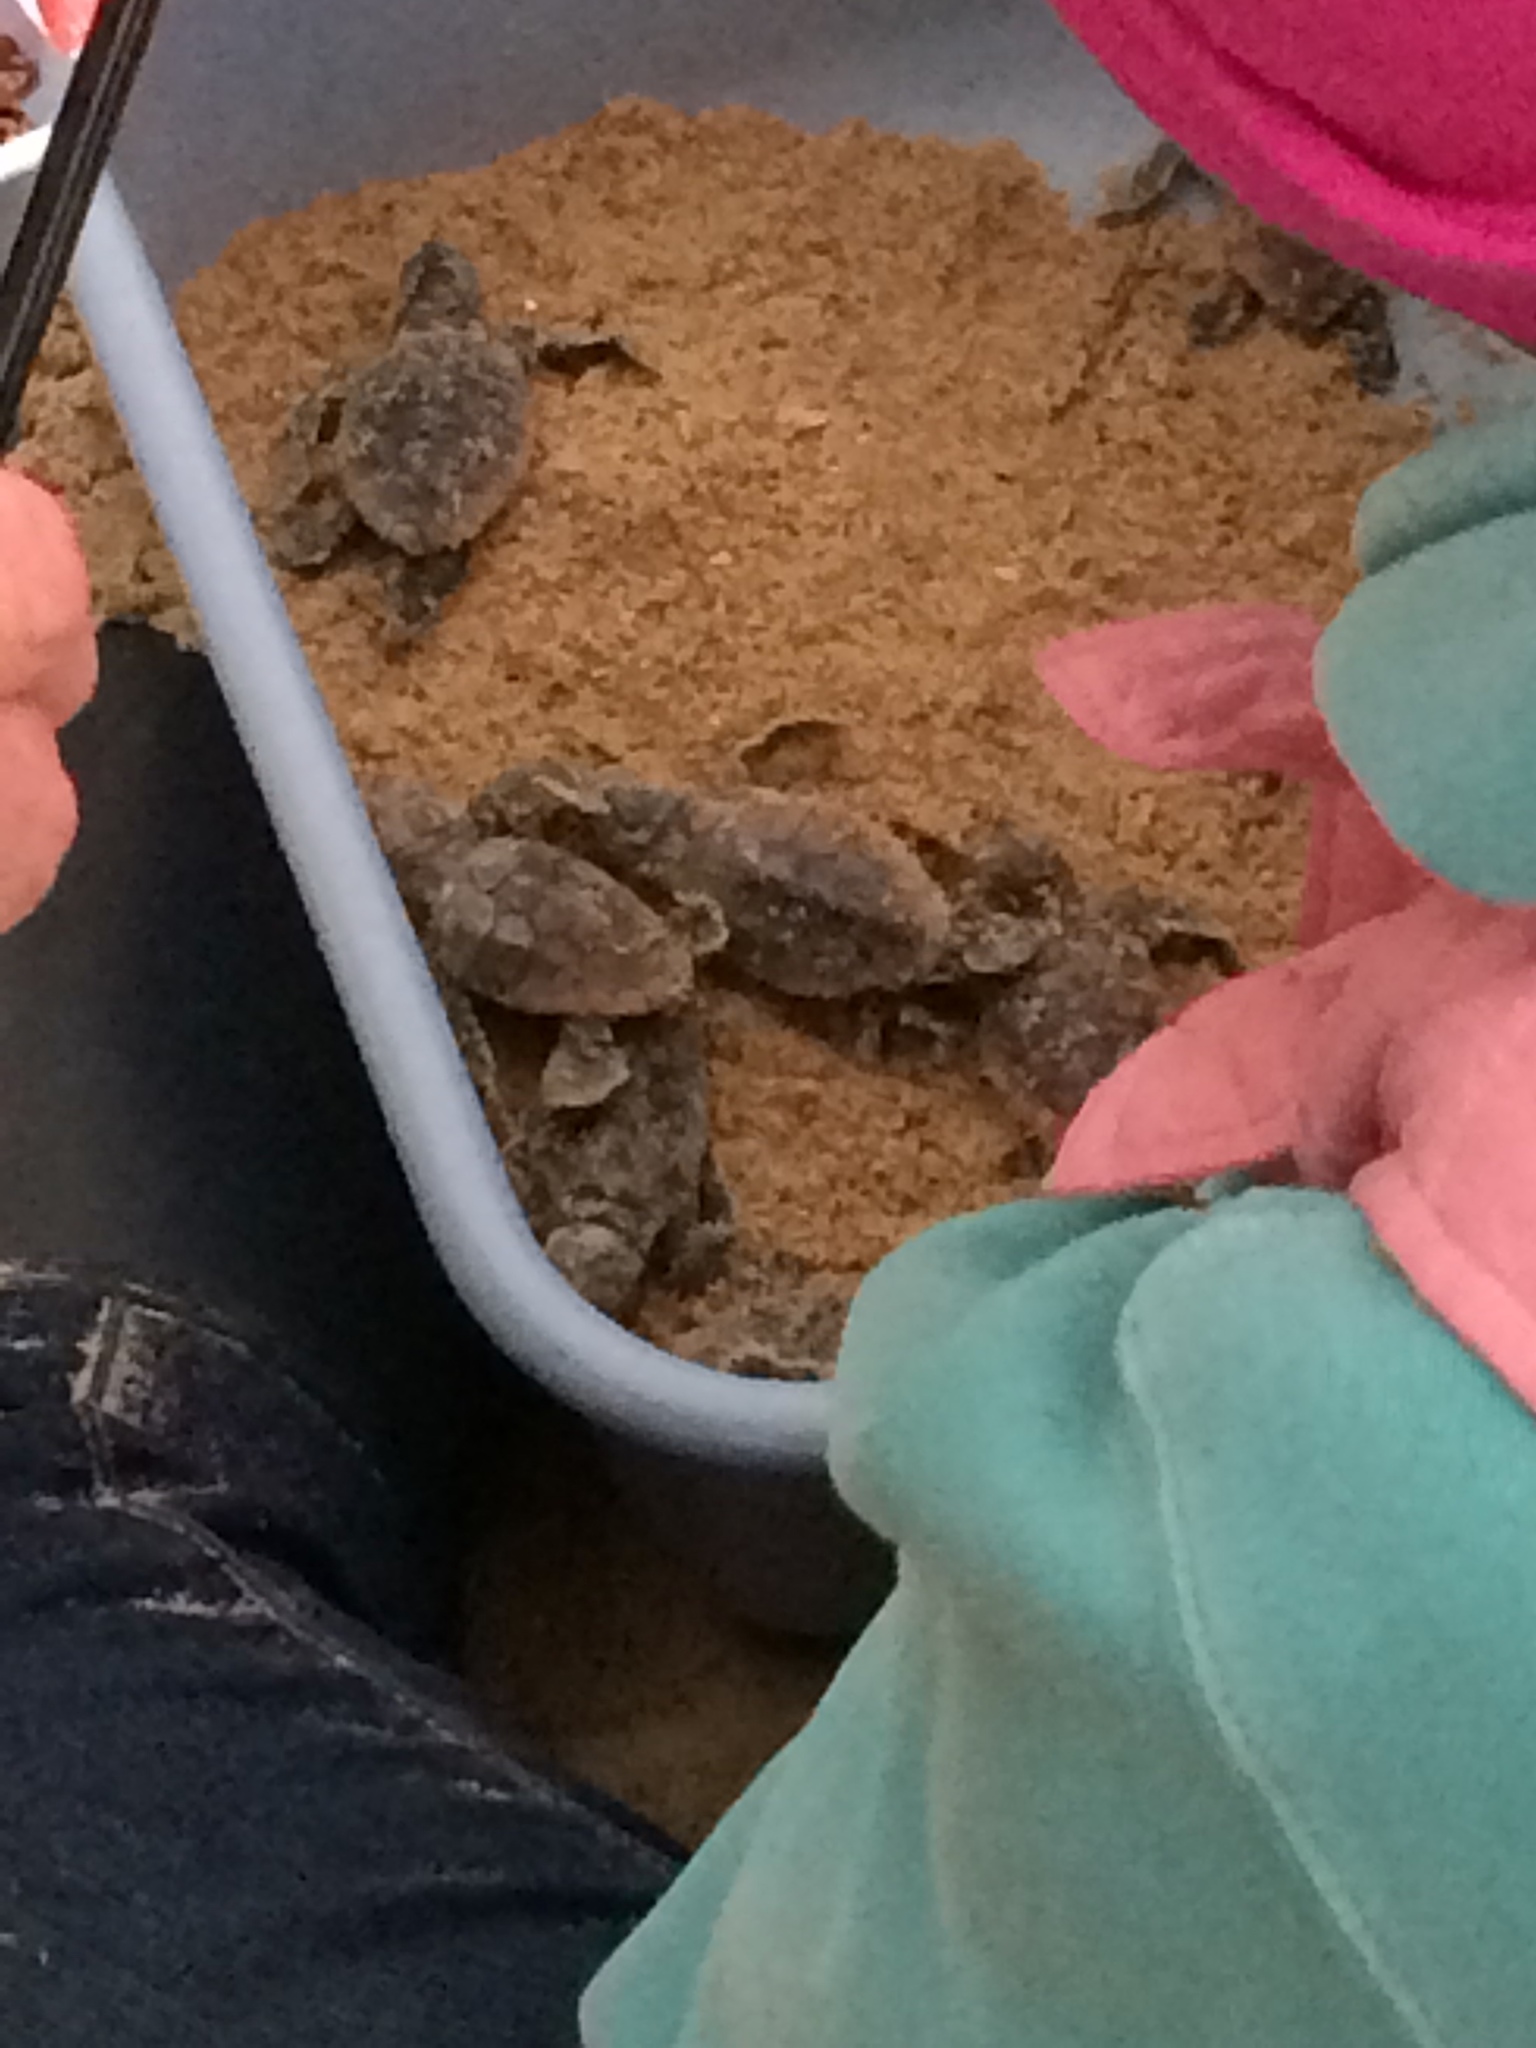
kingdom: Animalia
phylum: Chordata
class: Testudines
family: Cheloniidae
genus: Caretta
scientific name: Caretta caretta
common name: Loggerhead sea turtle
